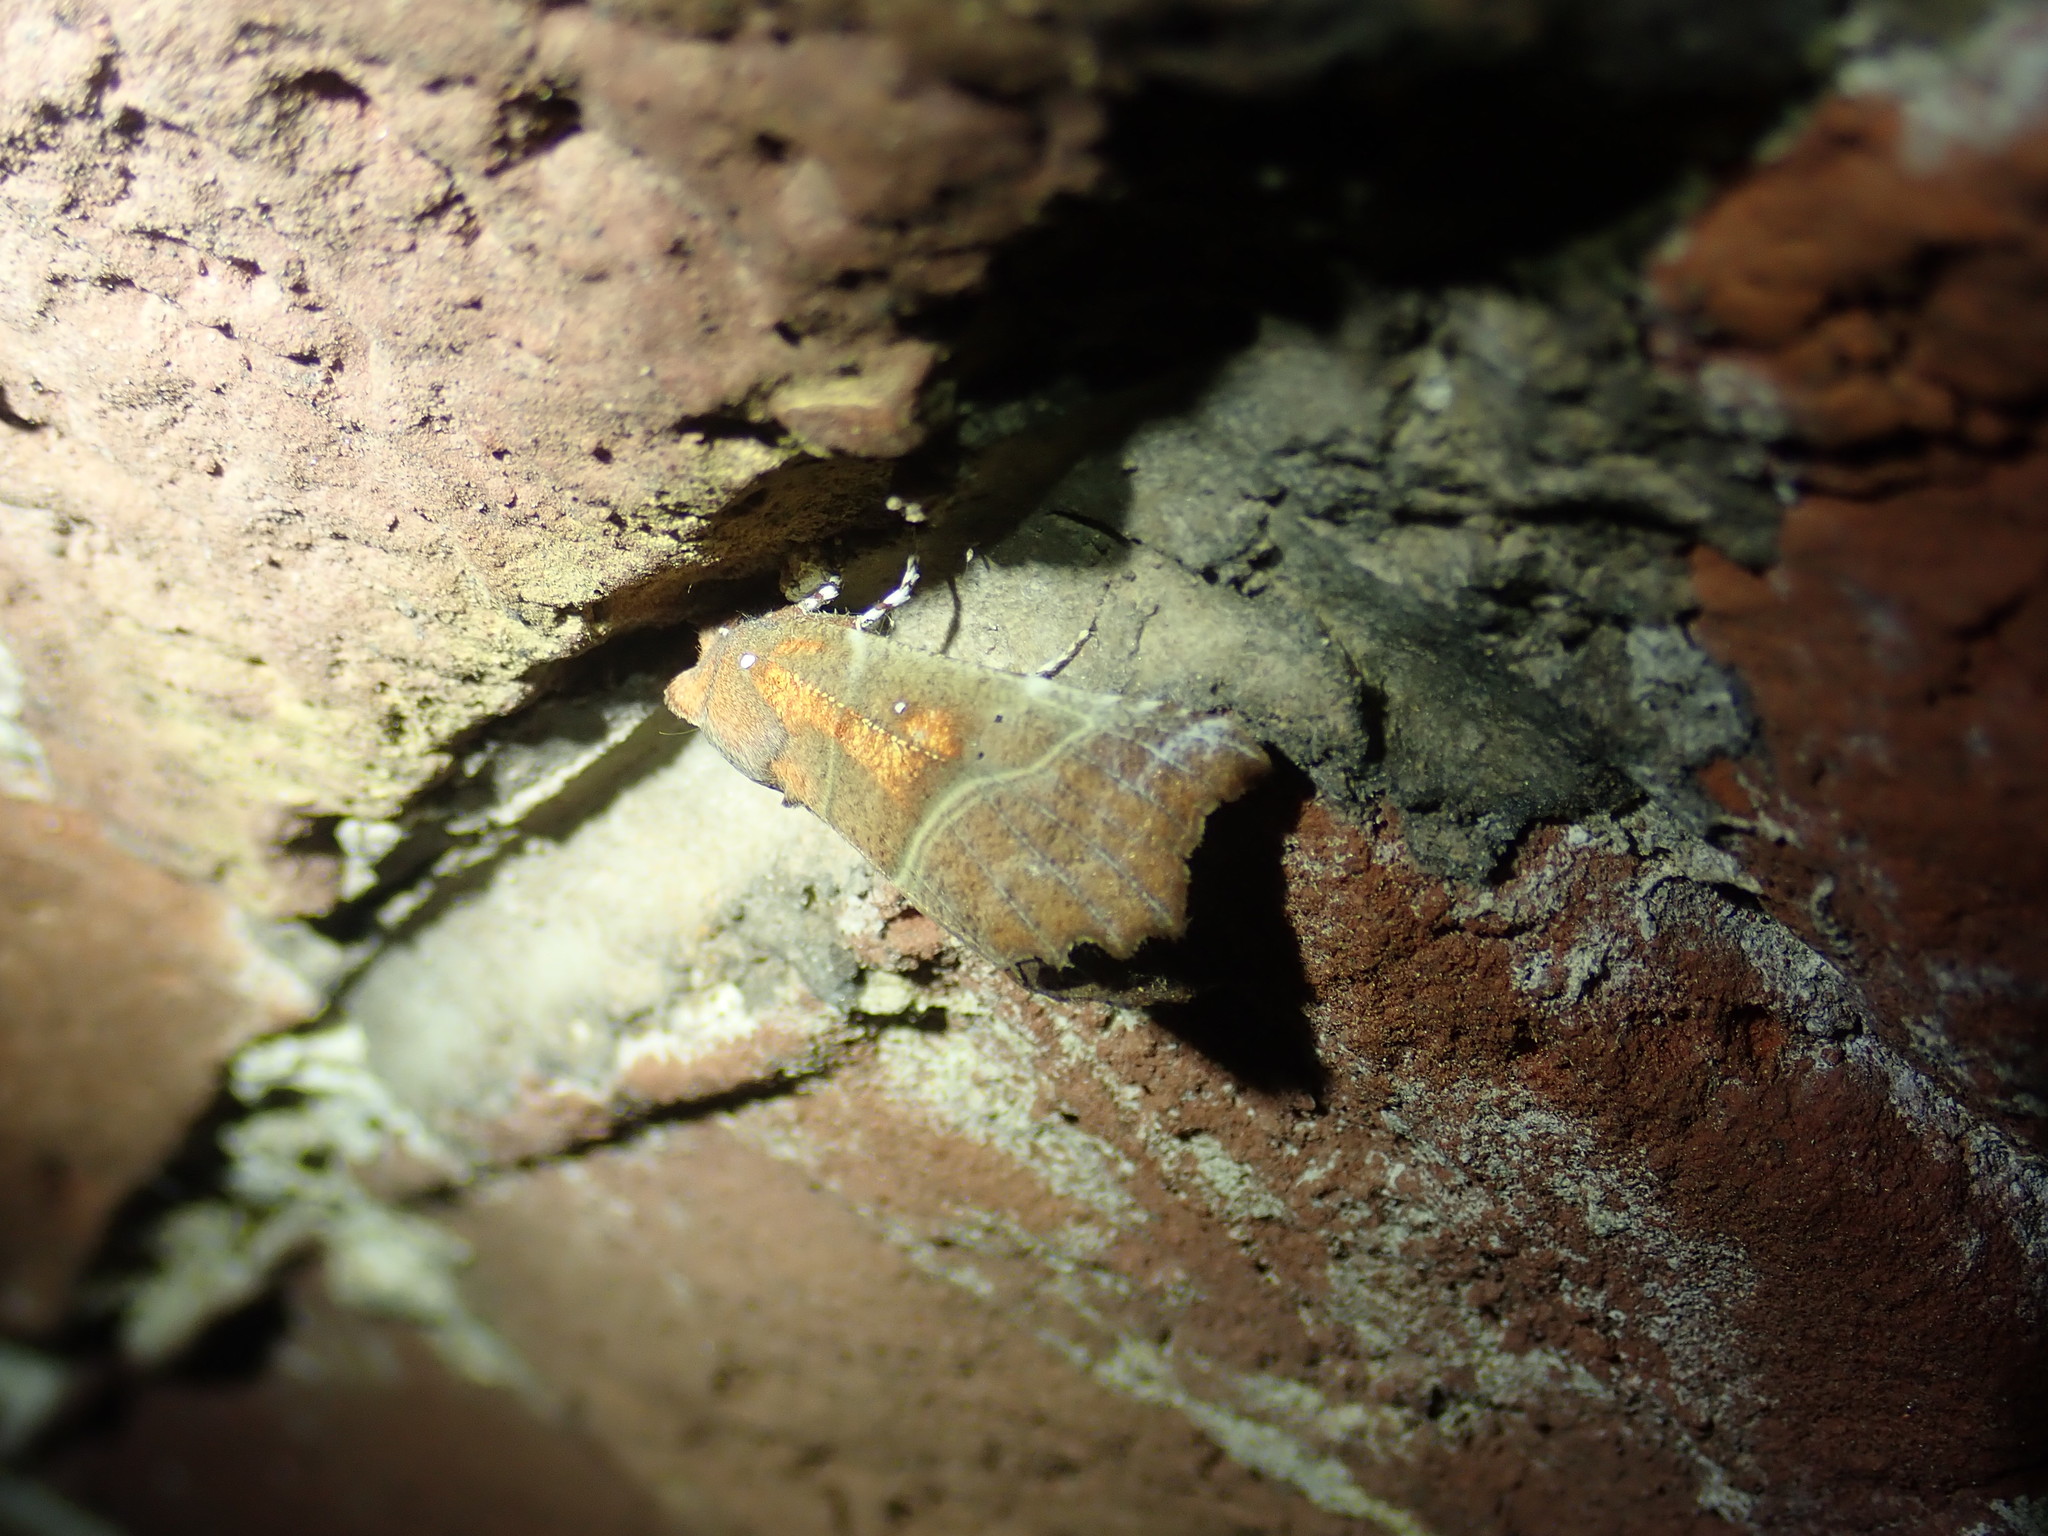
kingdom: Animalia
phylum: Arthropoda
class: Insecta
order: Lepidoptera
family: Erebidae
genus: Scoliopteryx
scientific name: Scoliopteryx libatrix
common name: Herald
